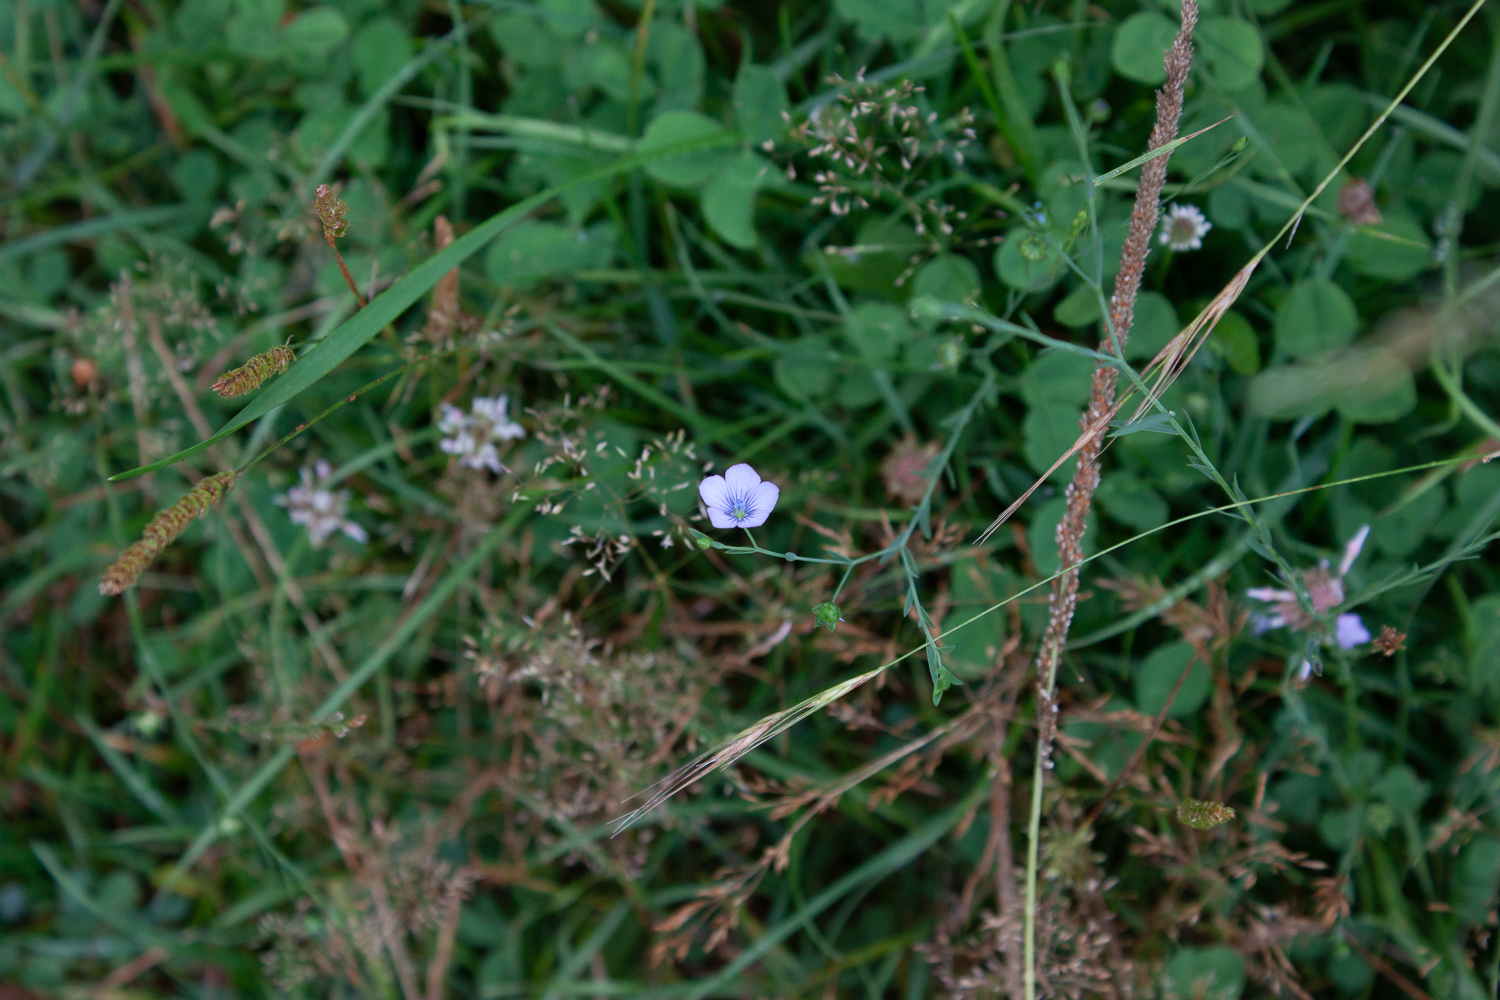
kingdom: Plantae
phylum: Tracheophyta
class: Magnoliopsida
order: Malpighiales
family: Linaceae
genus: Linum
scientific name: Linum bienne
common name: Pale flax
